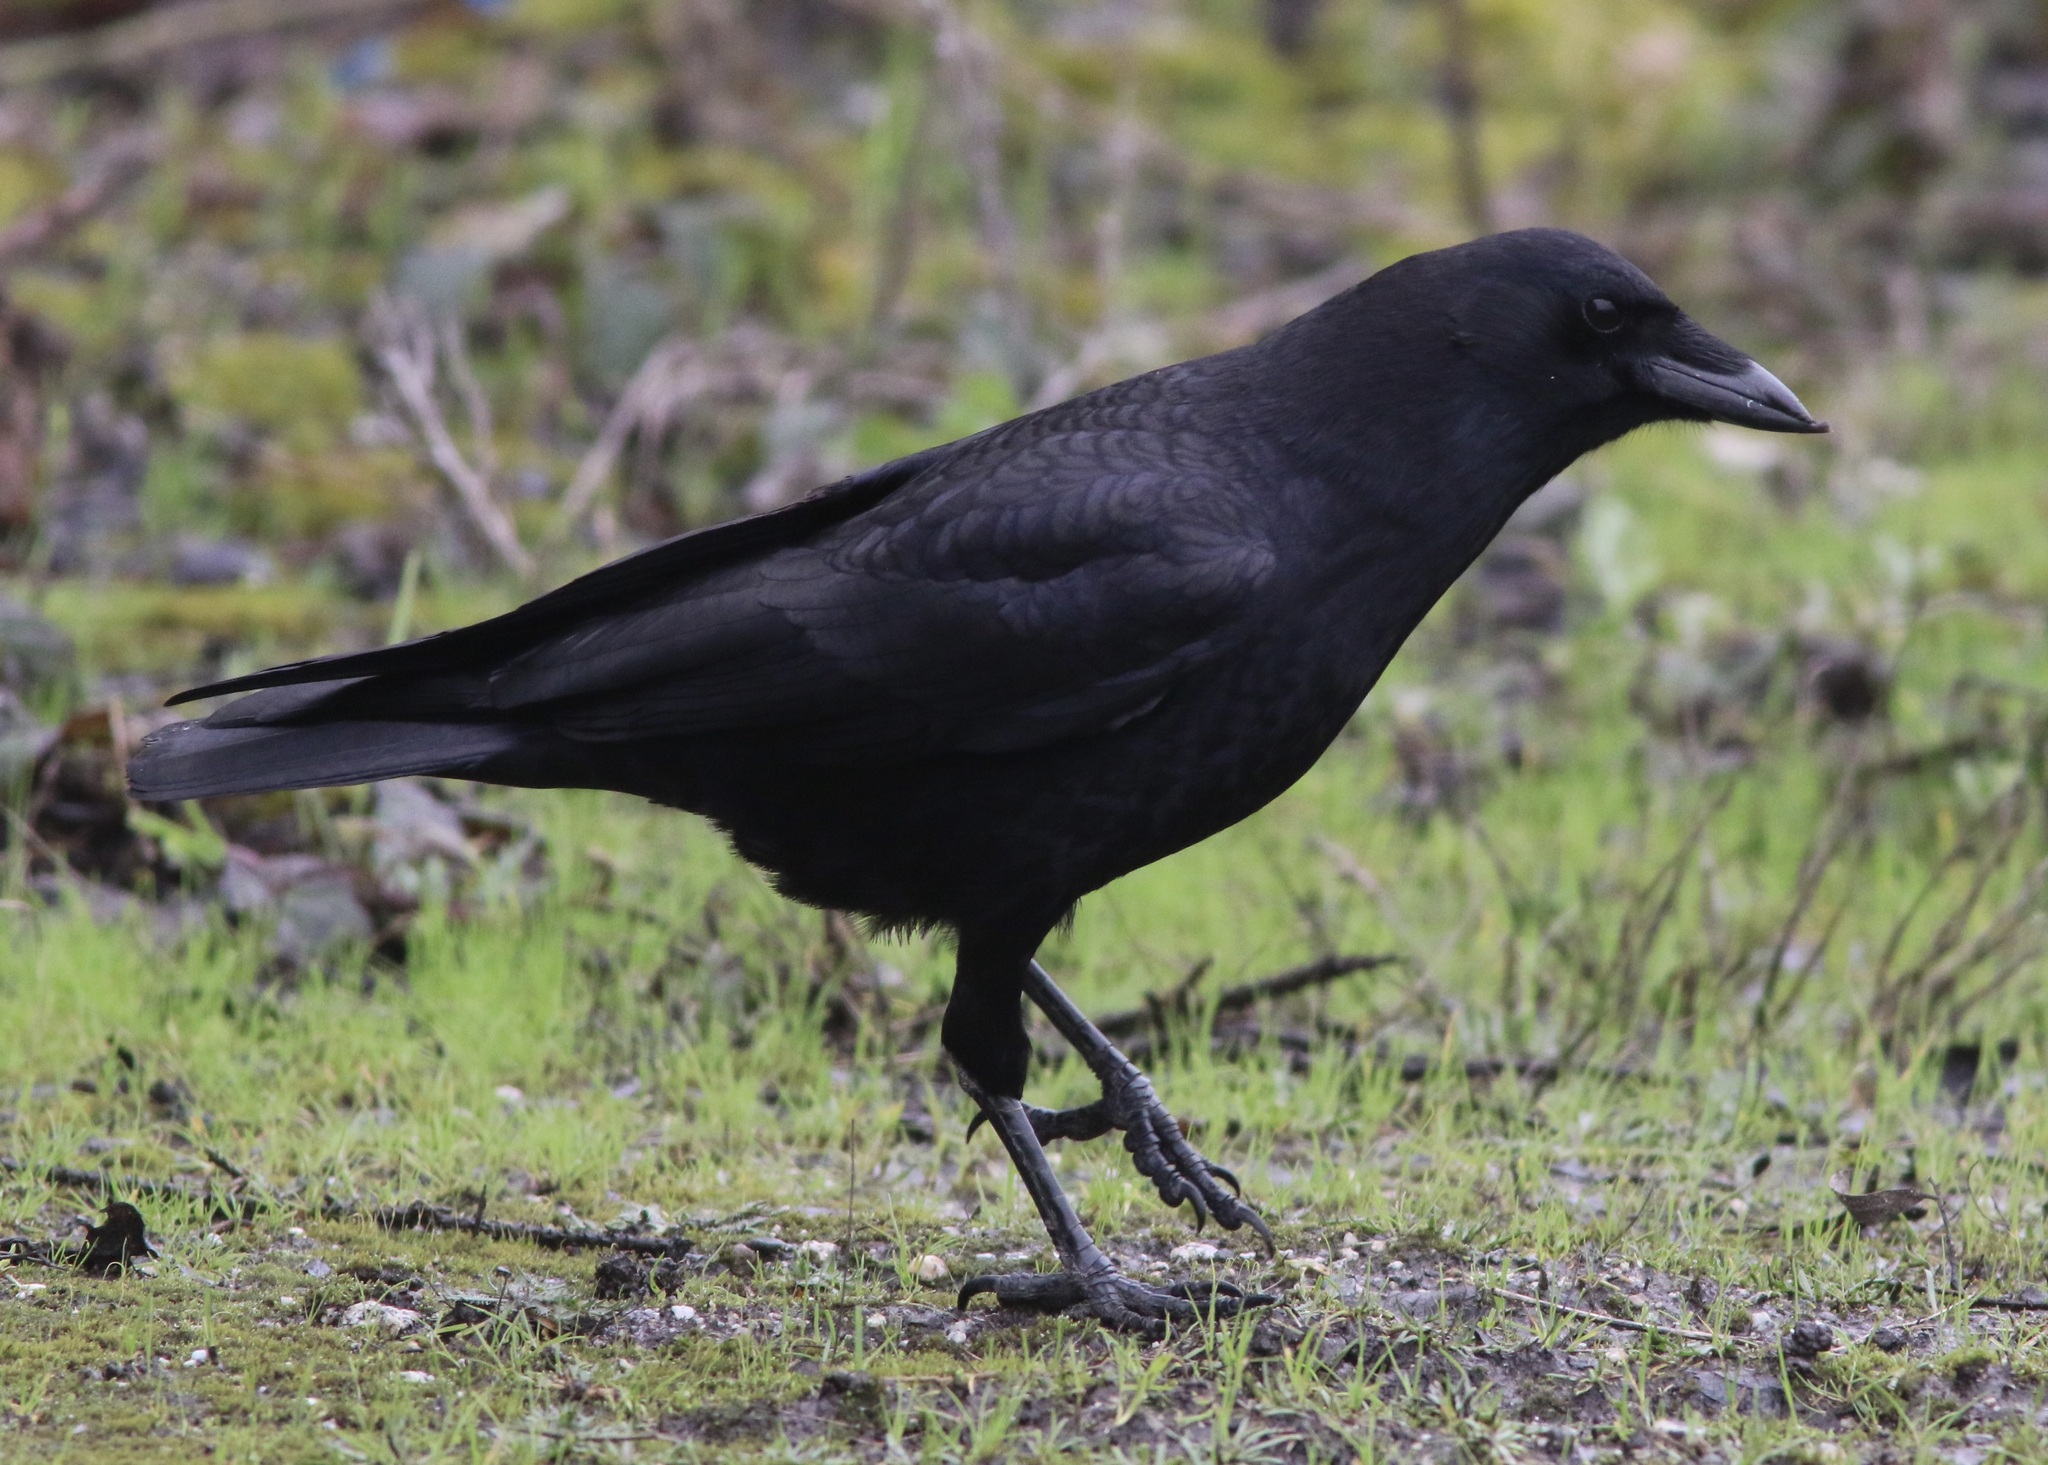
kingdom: Animalia
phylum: Chordata
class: Aves
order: Passeriformes
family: Corvidae
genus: Corvus
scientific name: Corvus brachyrhynchos
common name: American crow
